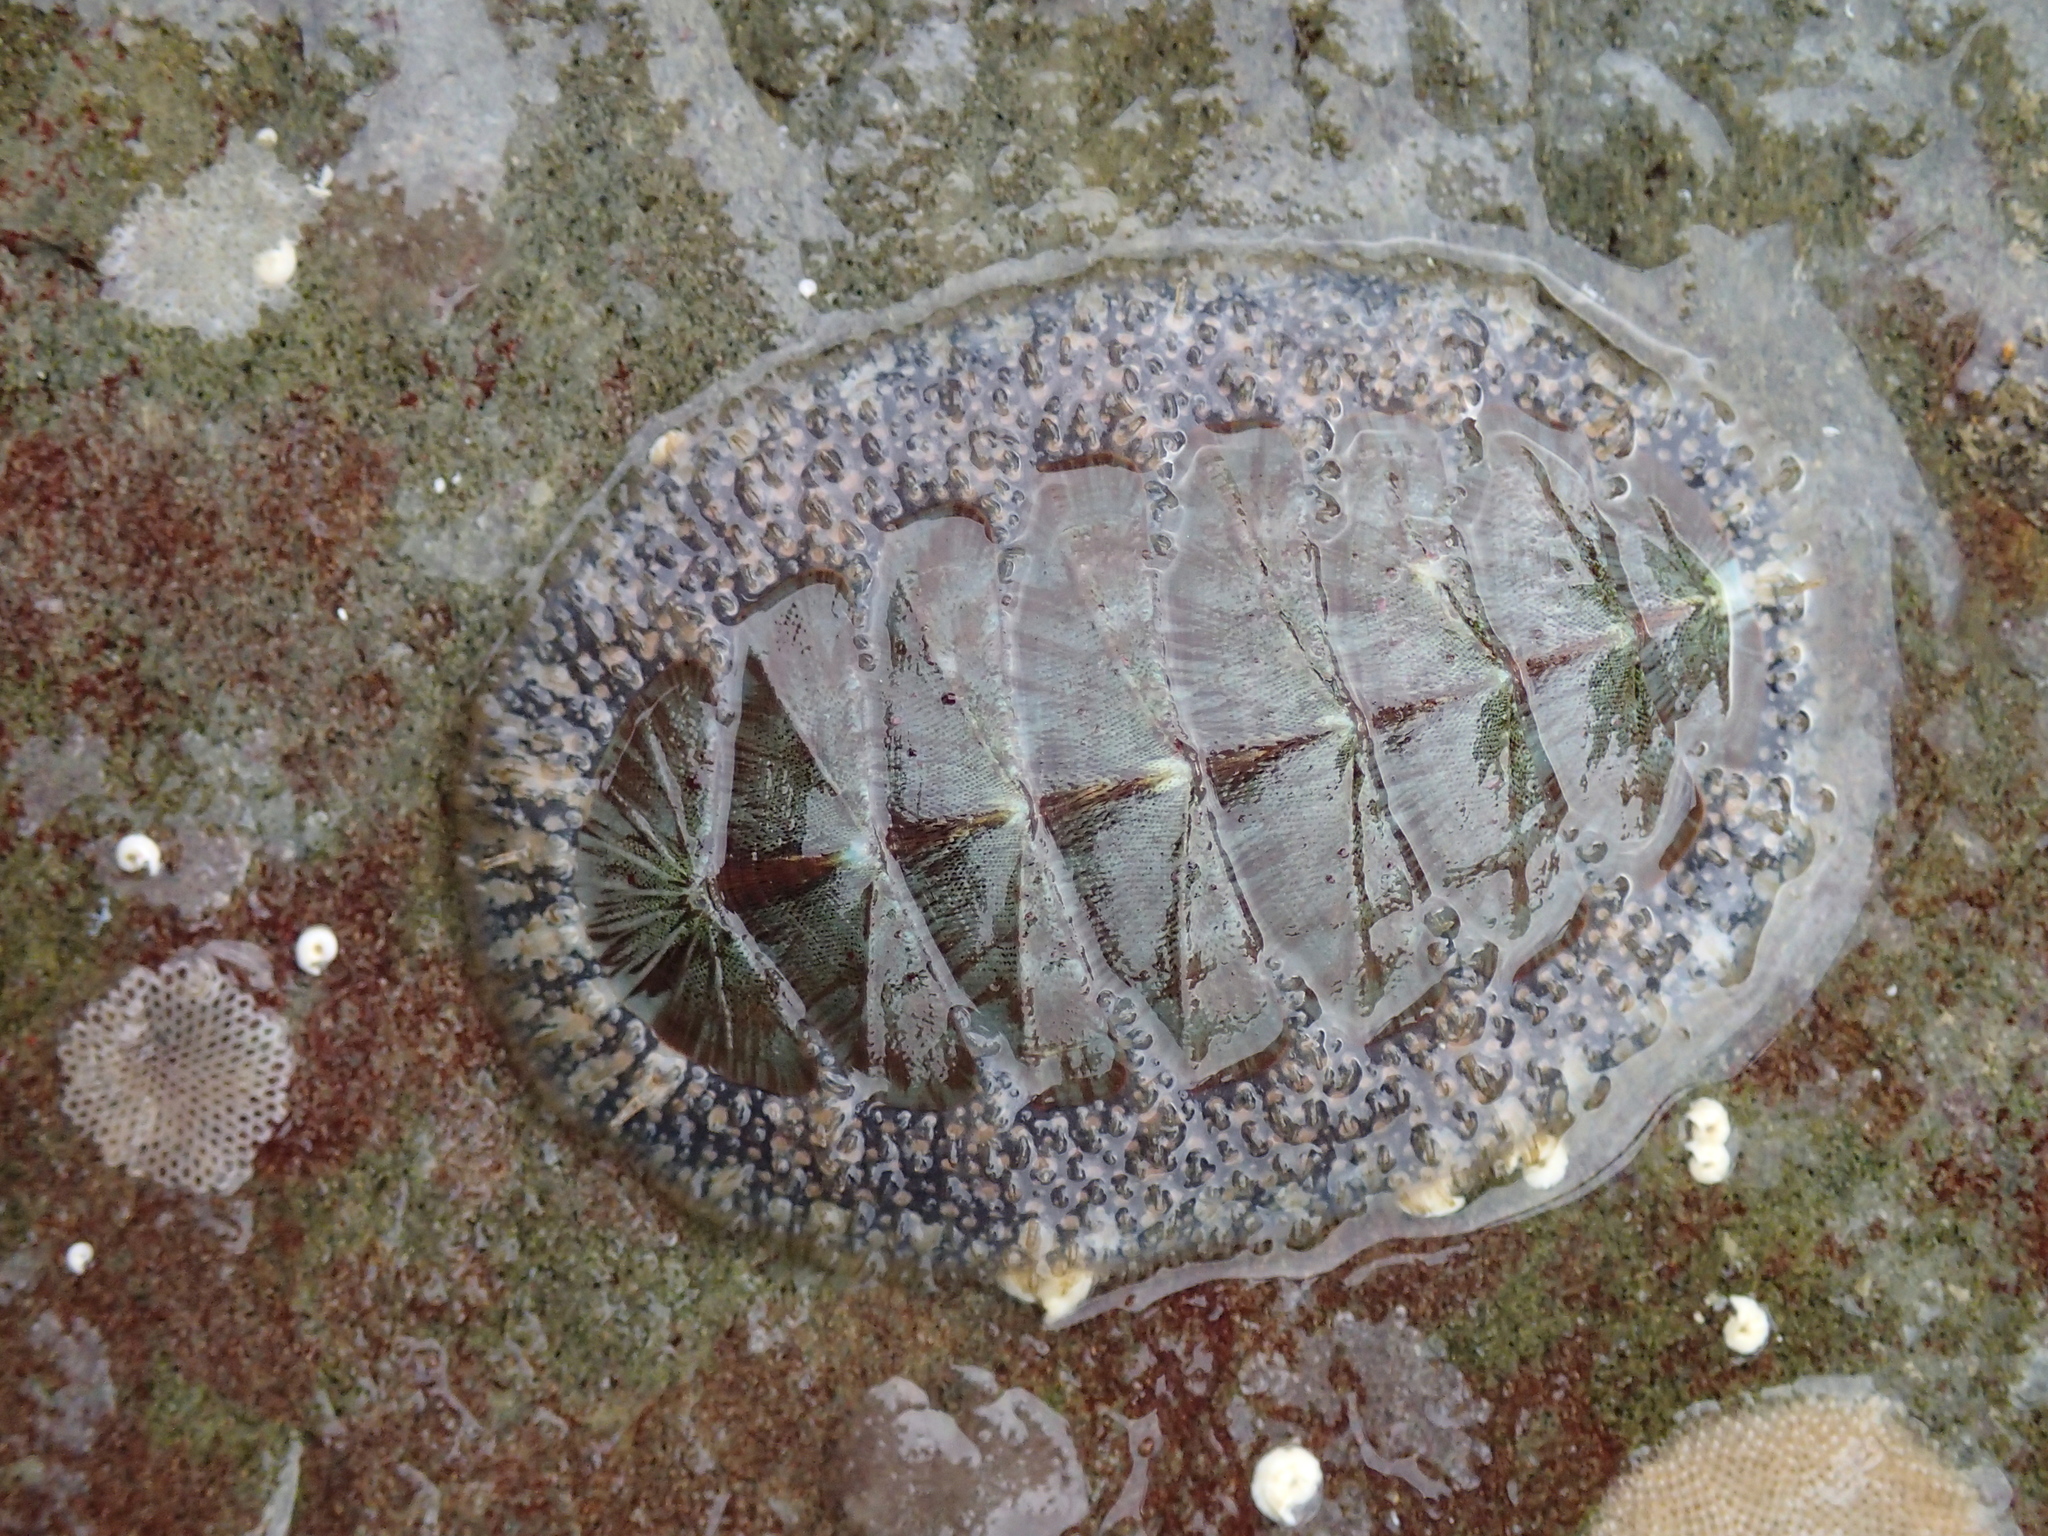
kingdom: Animalia
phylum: Mollusca
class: Polyplacophora
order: Chitonida
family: Mopaliidae
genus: Mopalia
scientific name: Mopalia lignosa
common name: Woody chiton
